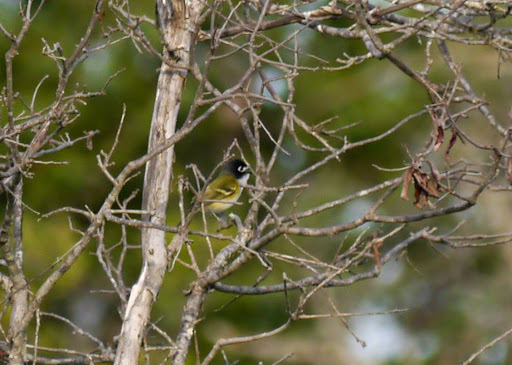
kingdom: Animalia
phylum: Chordata
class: Aves
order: Passeriformes
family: Vireonidae
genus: Vireo
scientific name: Vireo atricapilla
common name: Black-capped vireo
